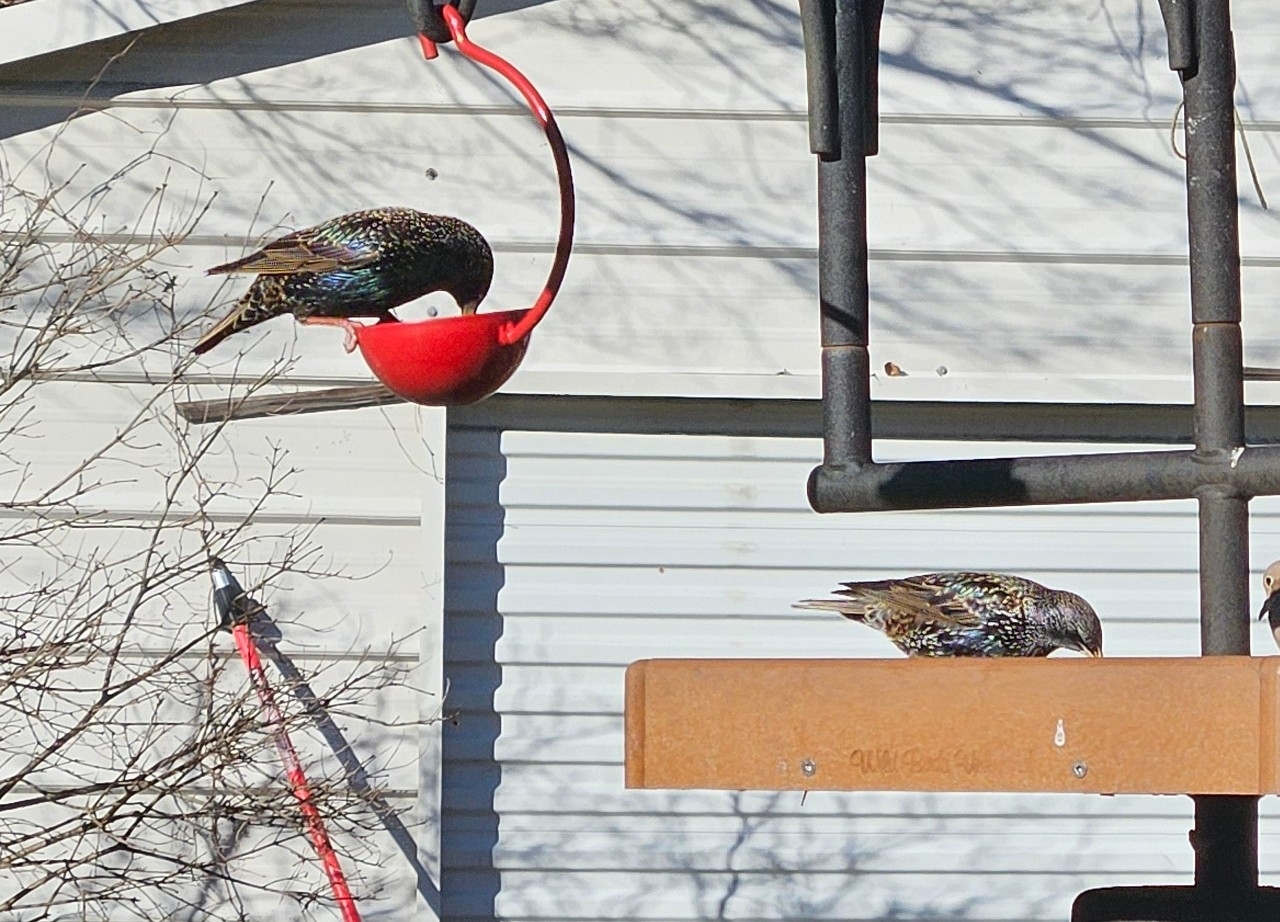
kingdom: Animalia
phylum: Chordata
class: Aves
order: Passeriformes
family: Sturnidae
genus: Sturnus
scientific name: Sturnus vulgaris
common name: Common starling
